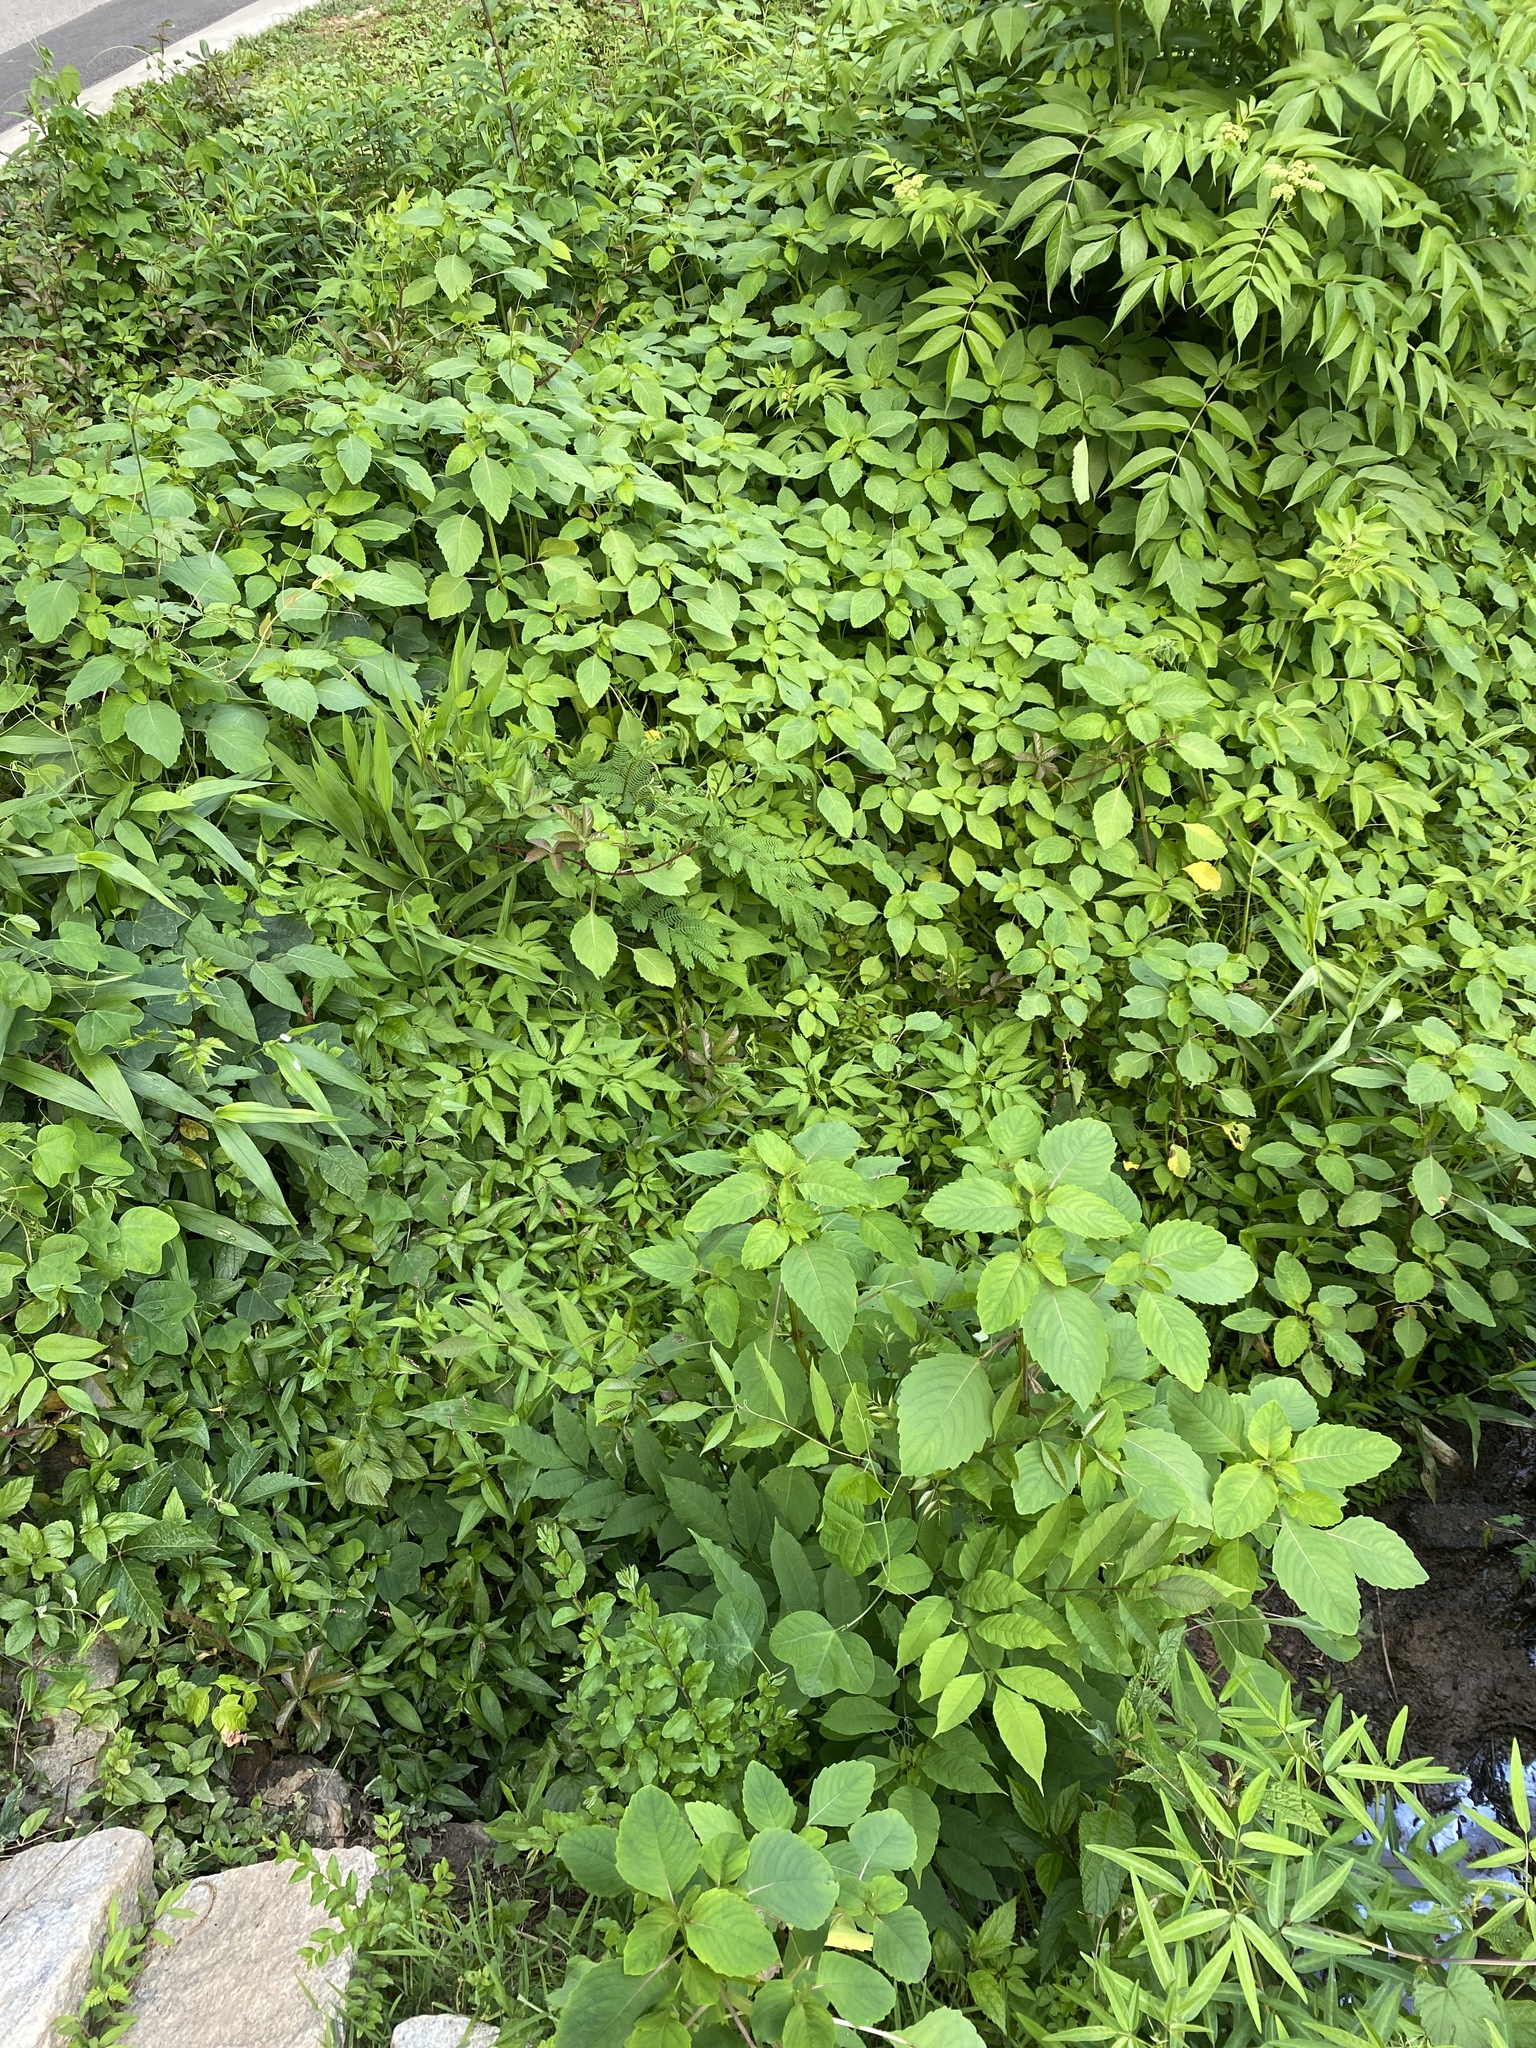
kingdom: Plantae
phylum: Tracheophyta
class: Magnoliopsida
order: Ericales
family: Balsaminaceae
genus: Impatiens
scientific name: Impatiens capensis
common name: Orange balsam
